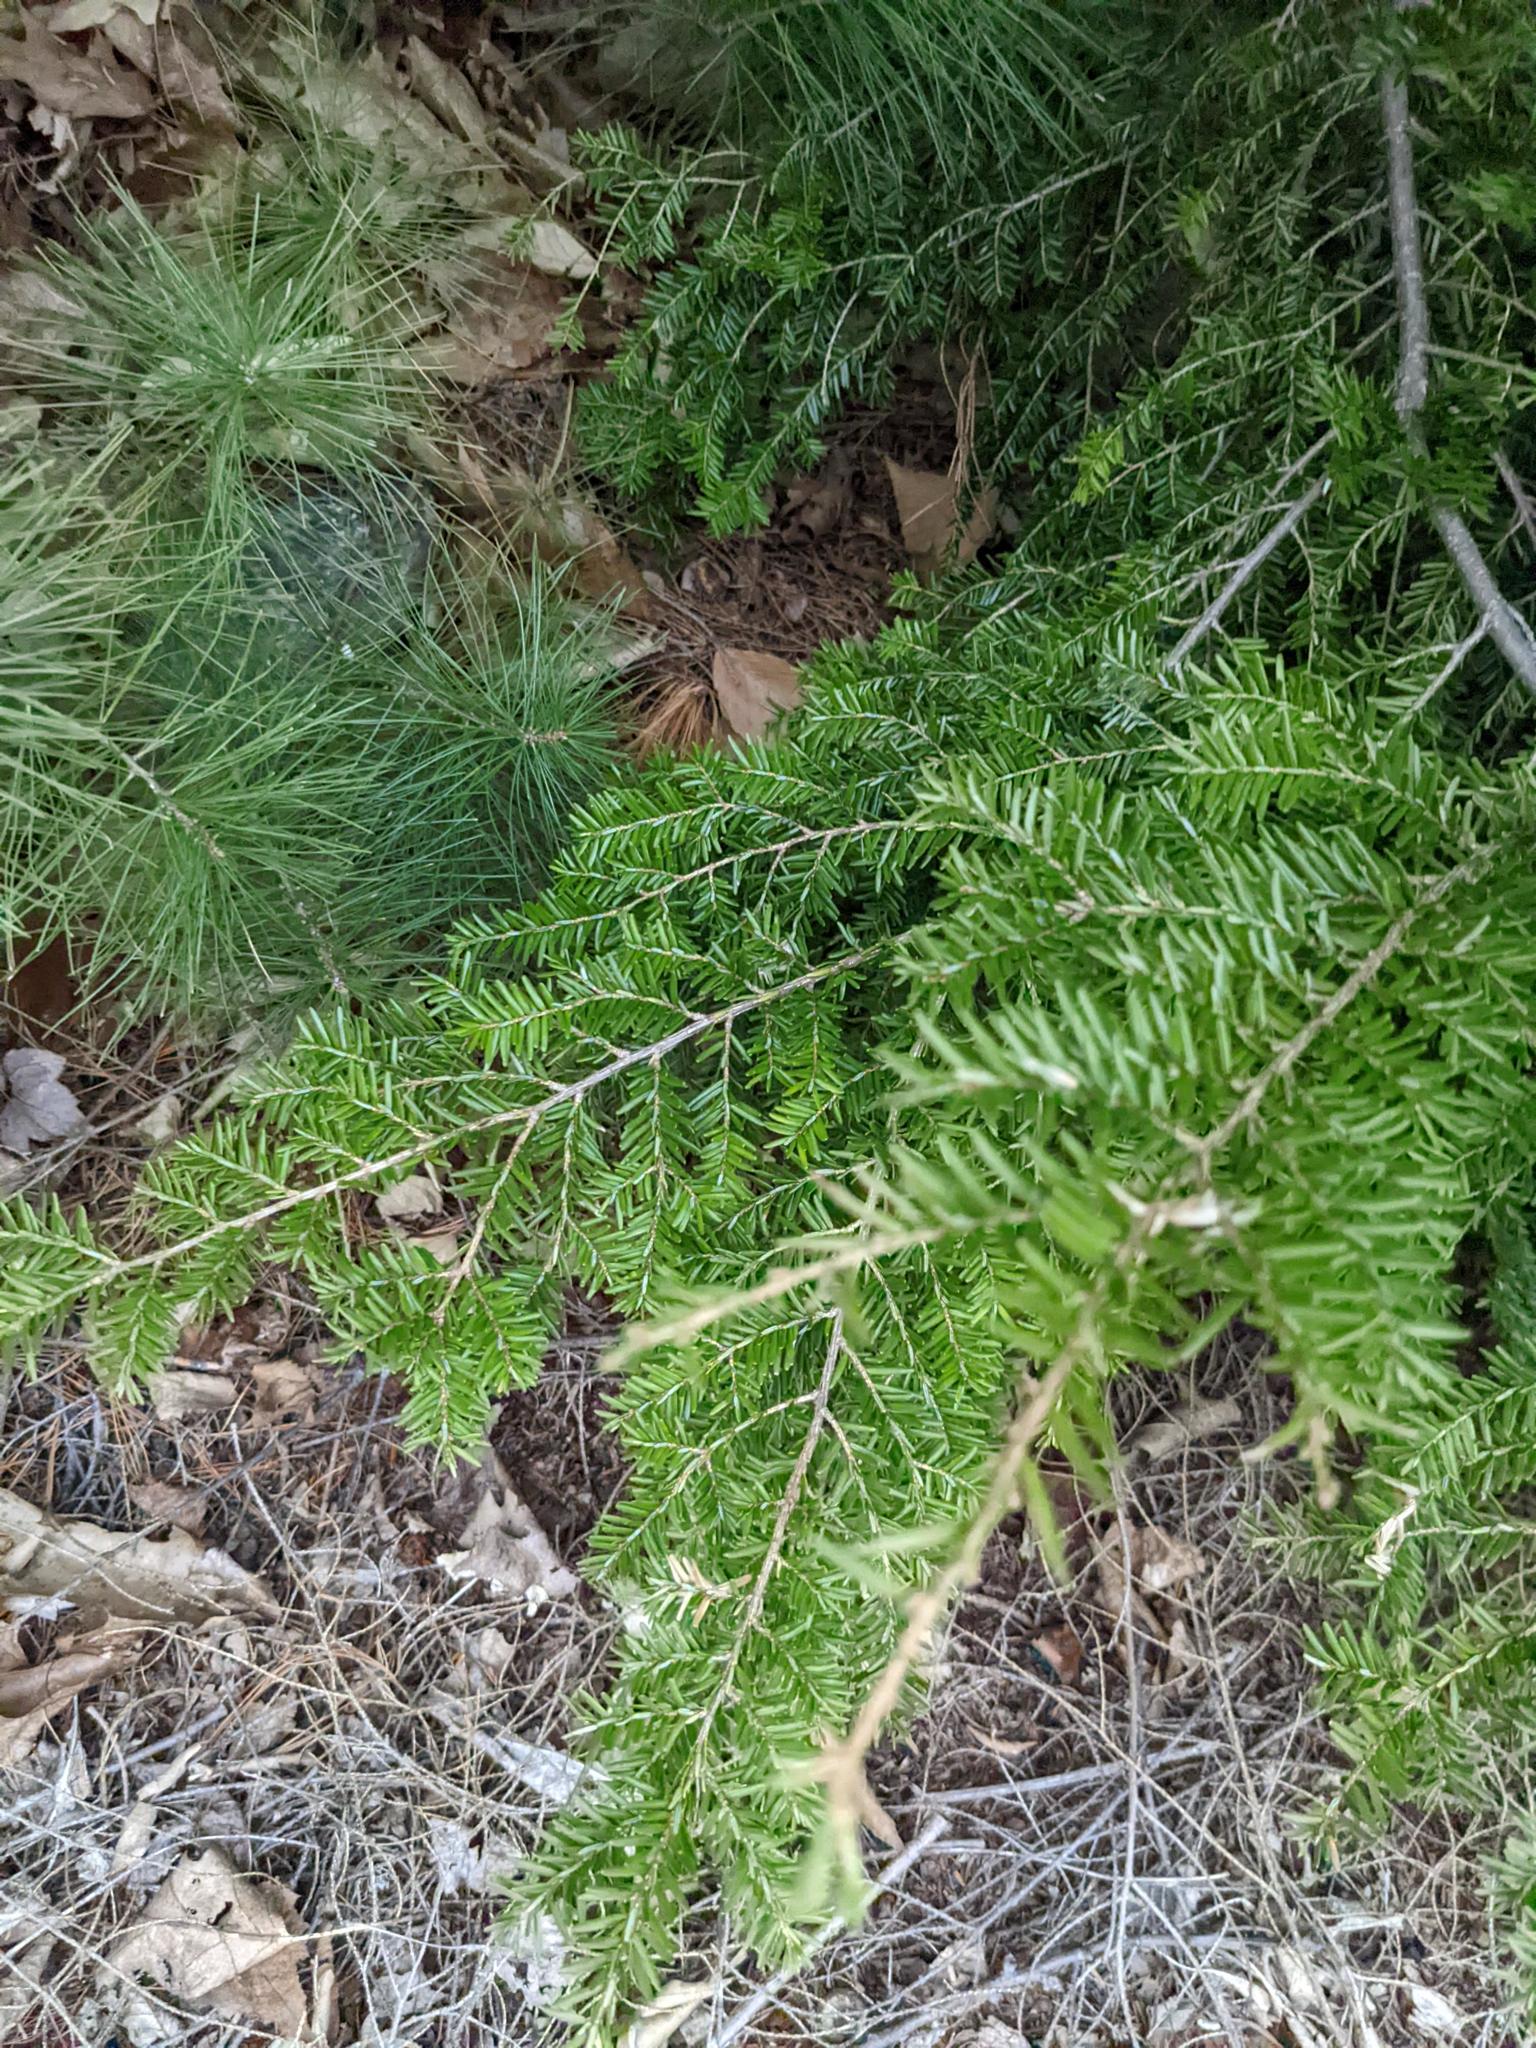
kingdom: Plantae
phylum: Tracheophyta
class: Pinopsida
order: Pinales
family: Pinaceae
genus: Tsuga
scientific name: Tsuga canadensis
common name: Eastern hemlock
